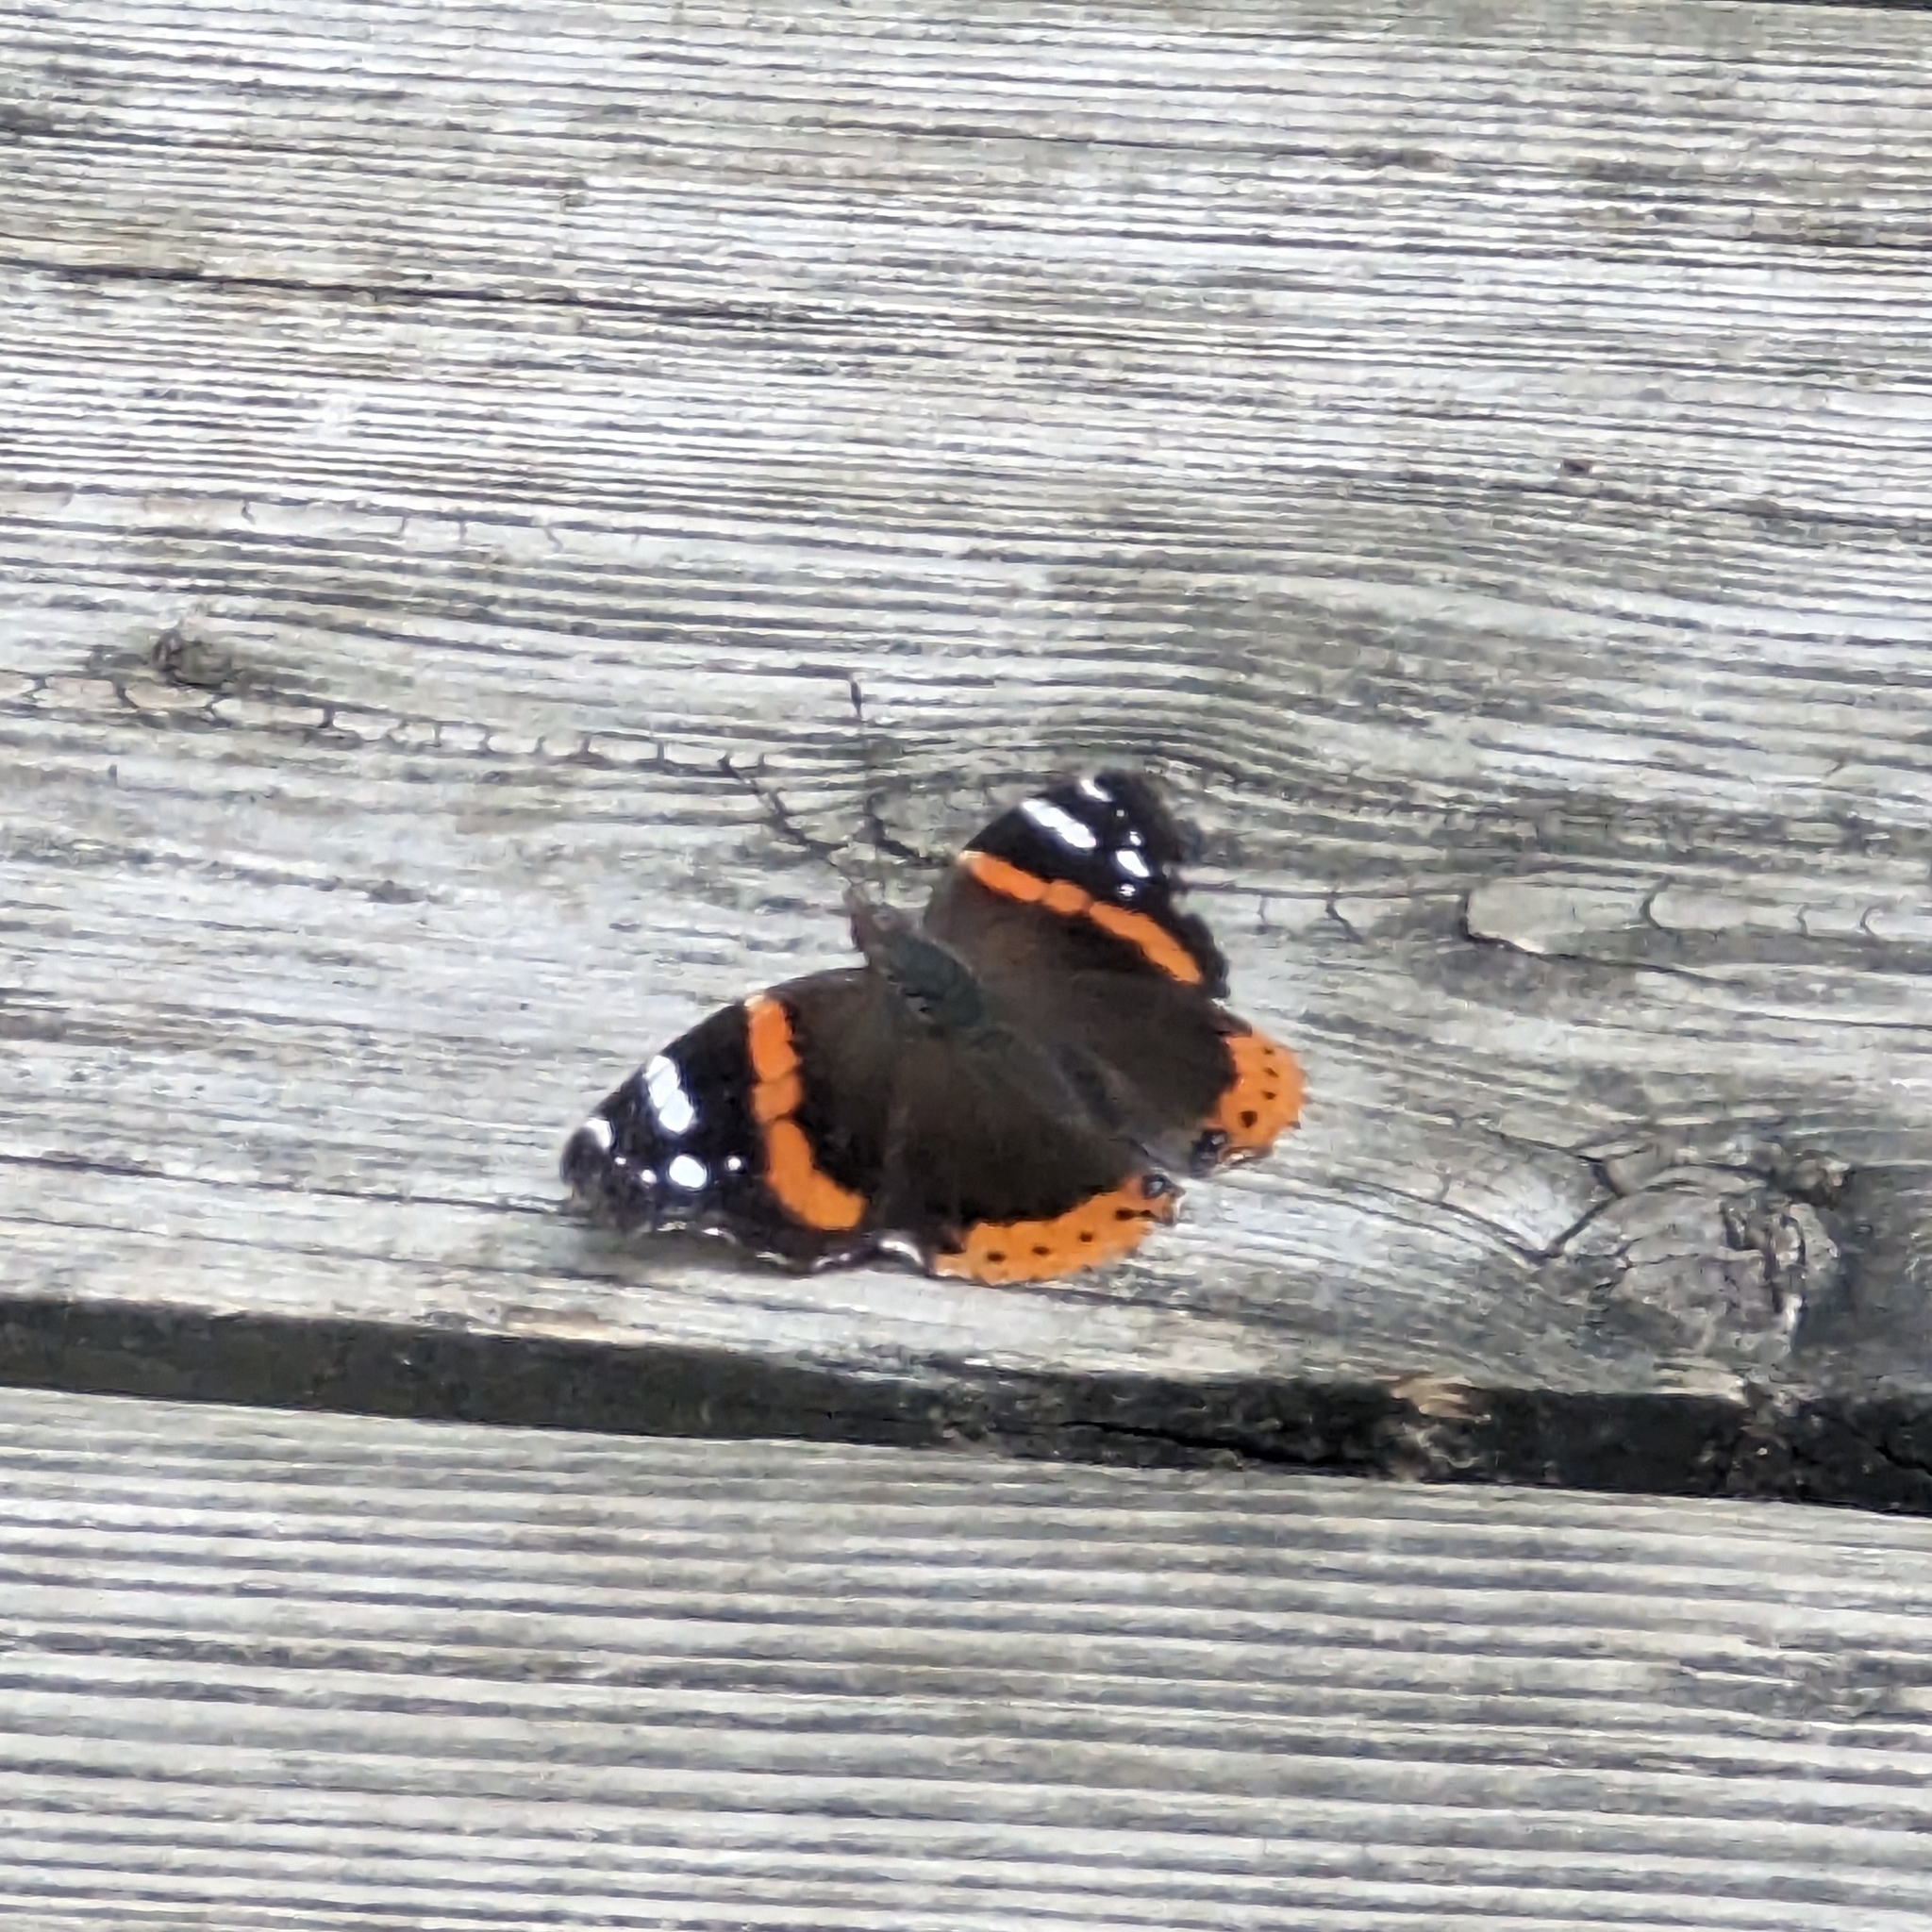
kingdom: Animalia
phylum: Arthropoda
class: Insecta
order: Lepidoptera
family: Nymphalidae
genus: Vanessa
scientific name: Vanessa atalanta
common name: Red admiral
